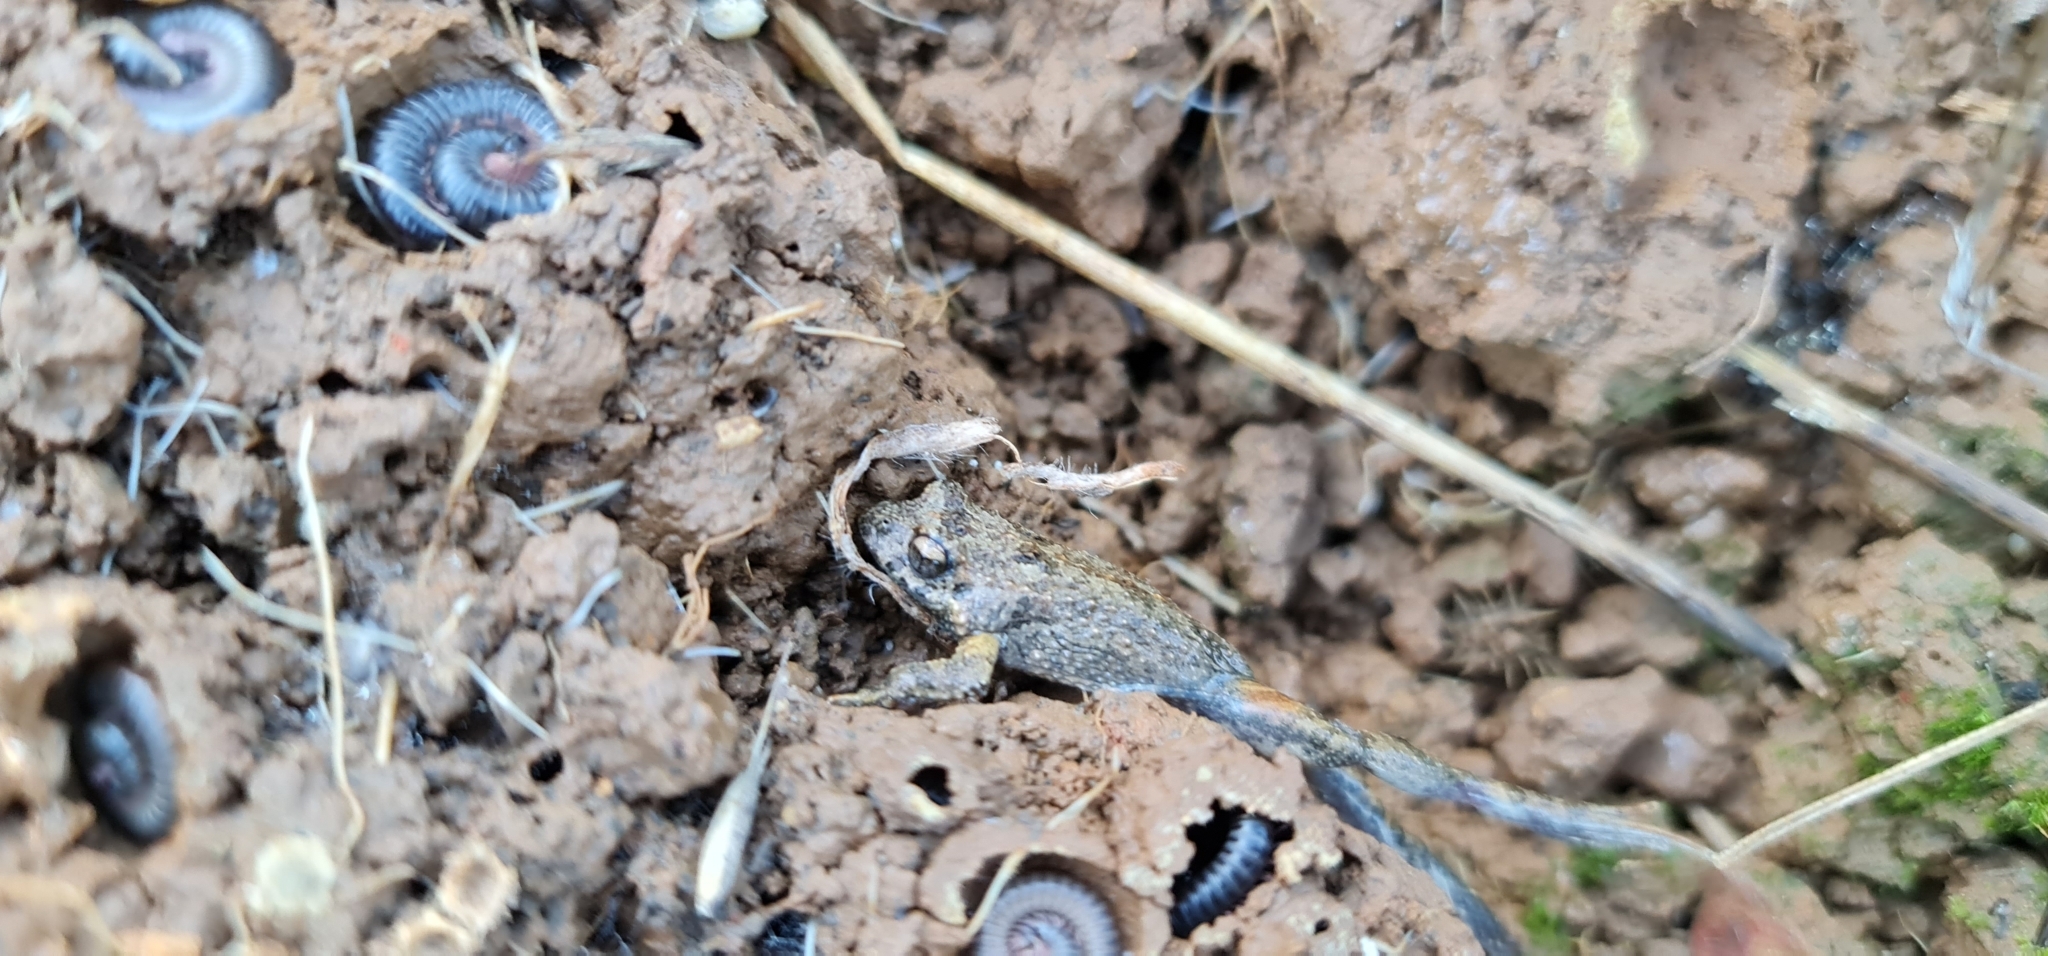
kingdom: Animalia
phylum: Chordata
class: Amphibia
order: Anura
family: Myobatrachidae
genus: Crinia
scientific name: Crinia signifera
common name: Brown froglet
